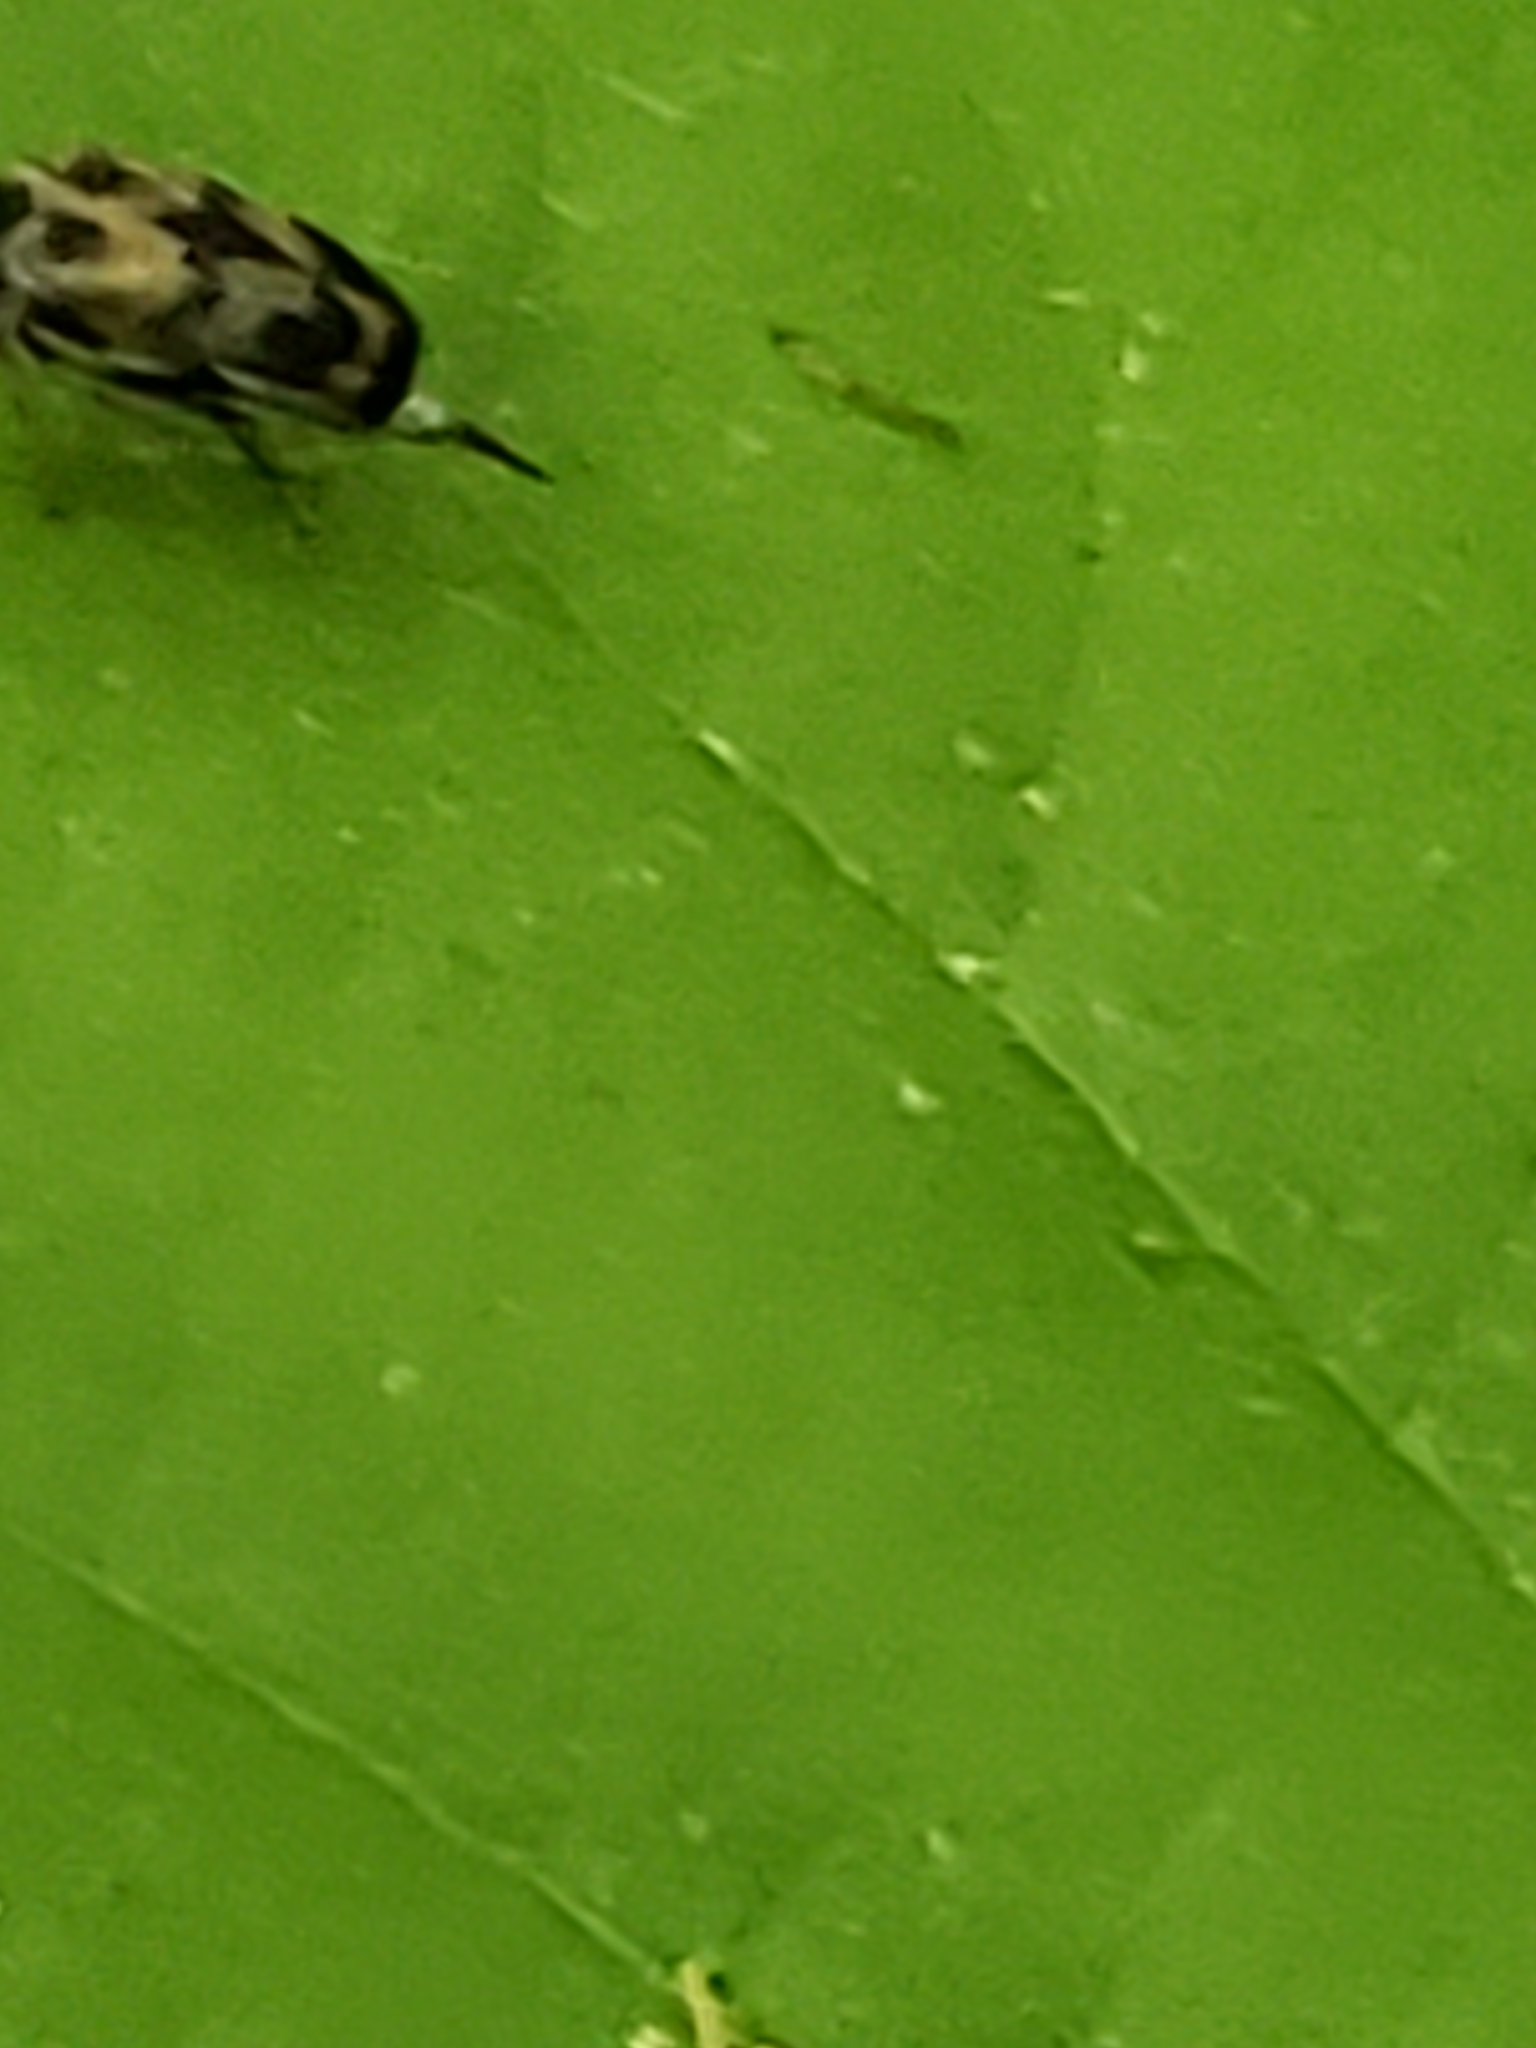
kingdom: Animalia
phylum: Arthropoda
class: Insecta
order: Coleoptera
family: Mordellidae
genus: Paramordellaria
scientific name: Paramordellaria triloba
